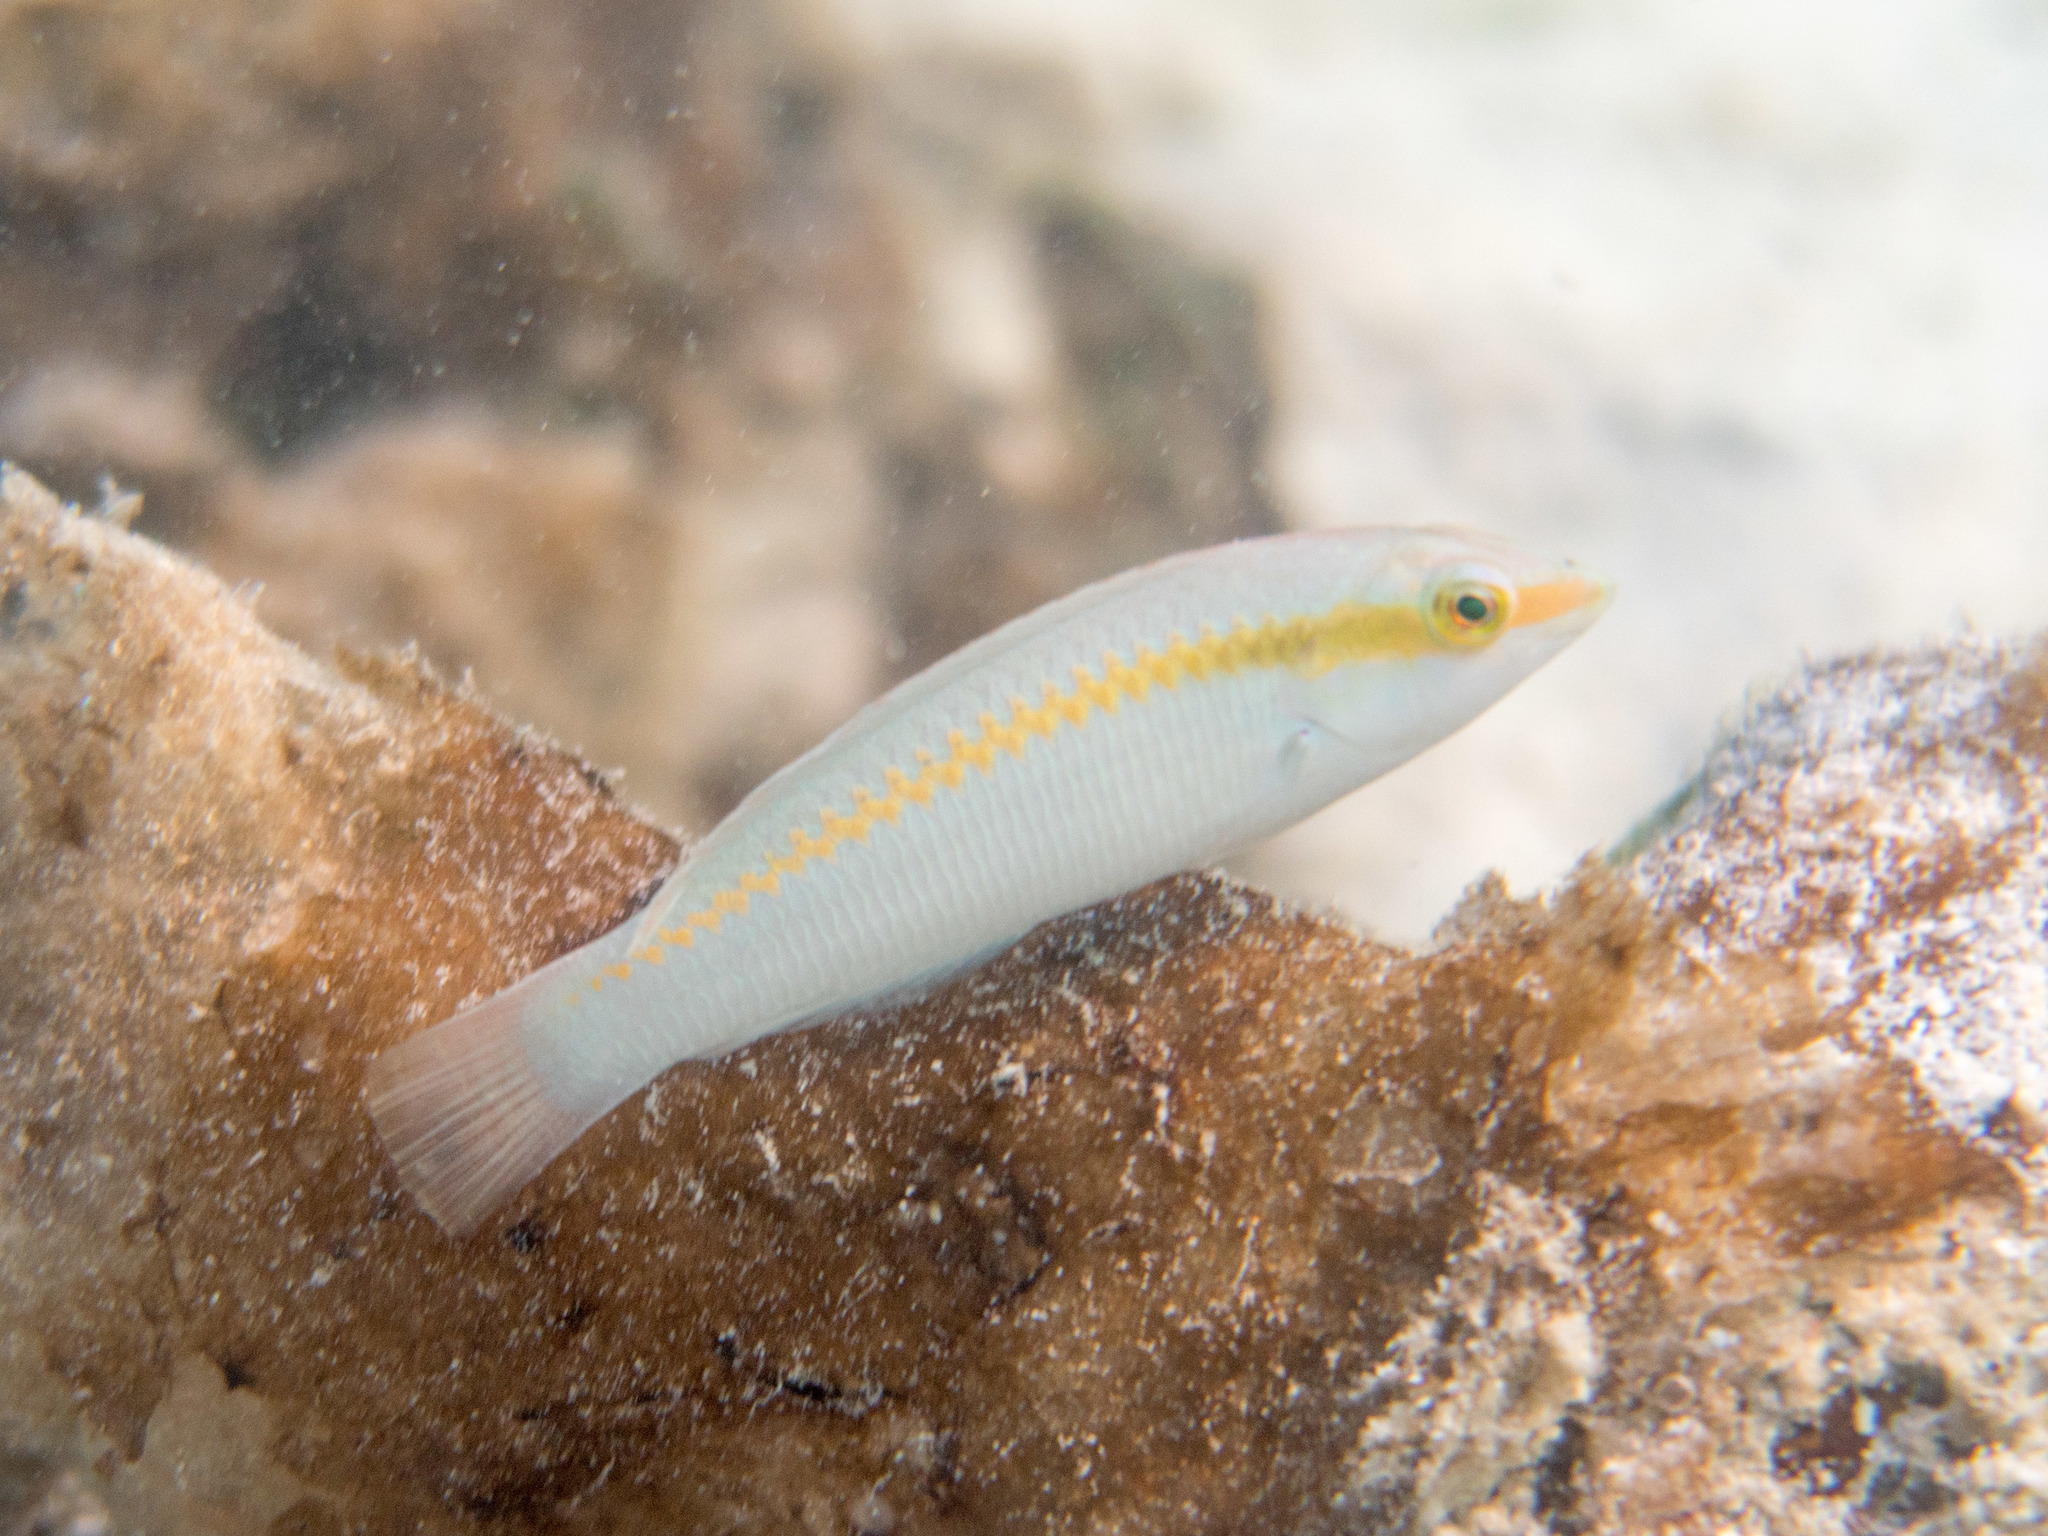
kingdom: Animalia
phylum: Chordata
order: Perciformes
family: Labridae
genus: Halichoeres
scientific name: Halichoeres scapularis
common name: Brownbanded wrasse
